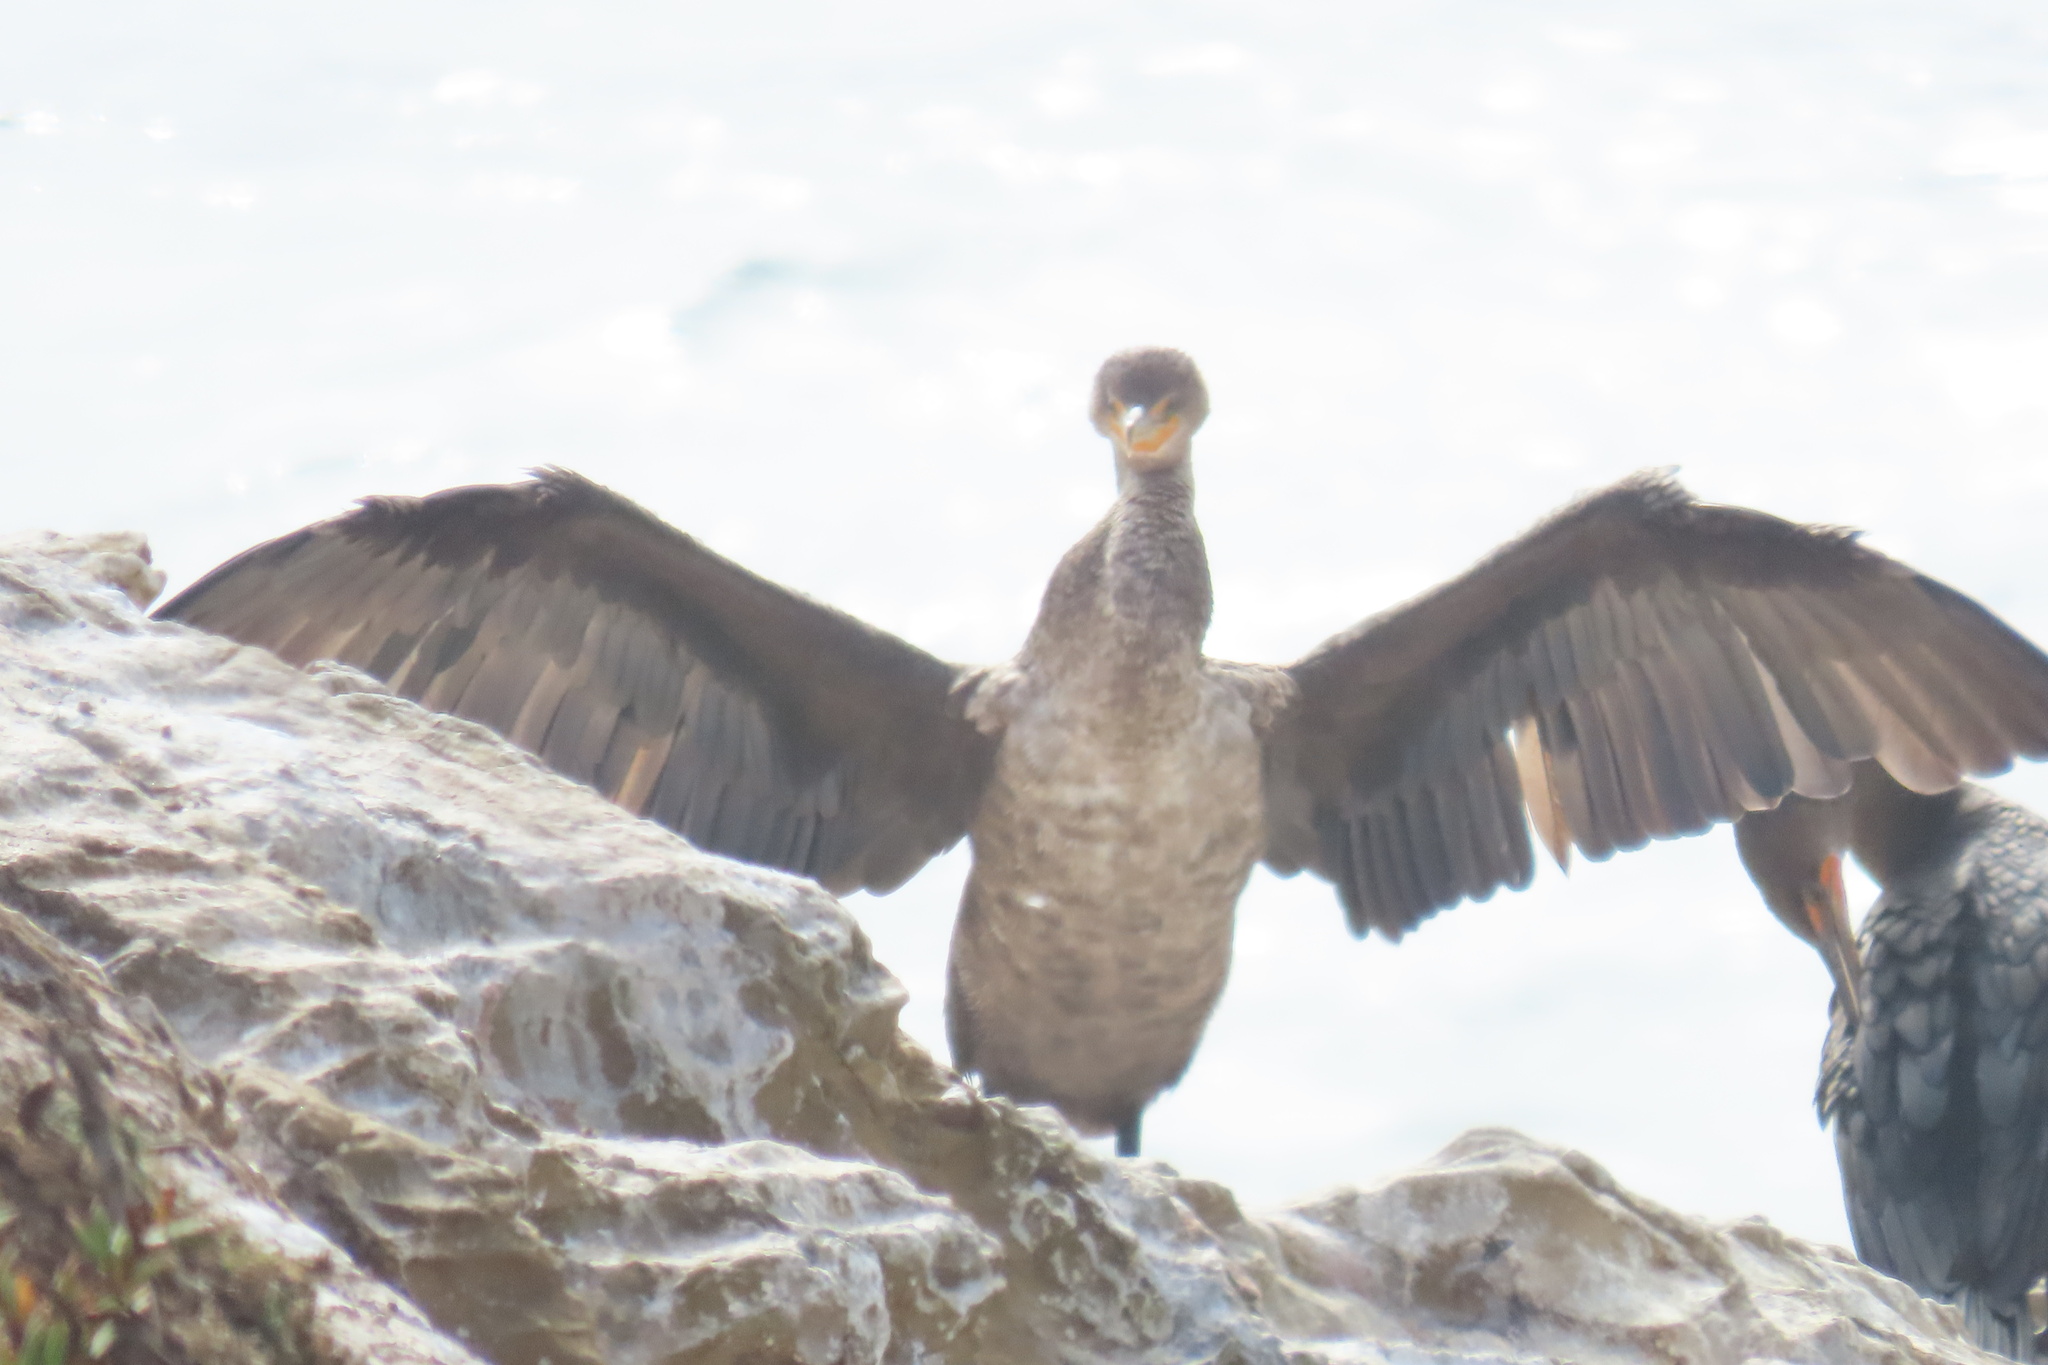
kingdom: Animalia
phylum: Chordata
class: Aves
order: Suliformes
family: Phalacrocoracidae
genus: Phalacrocorax
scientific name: Phalacrocorax auritus
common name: Double-crested cormorant
